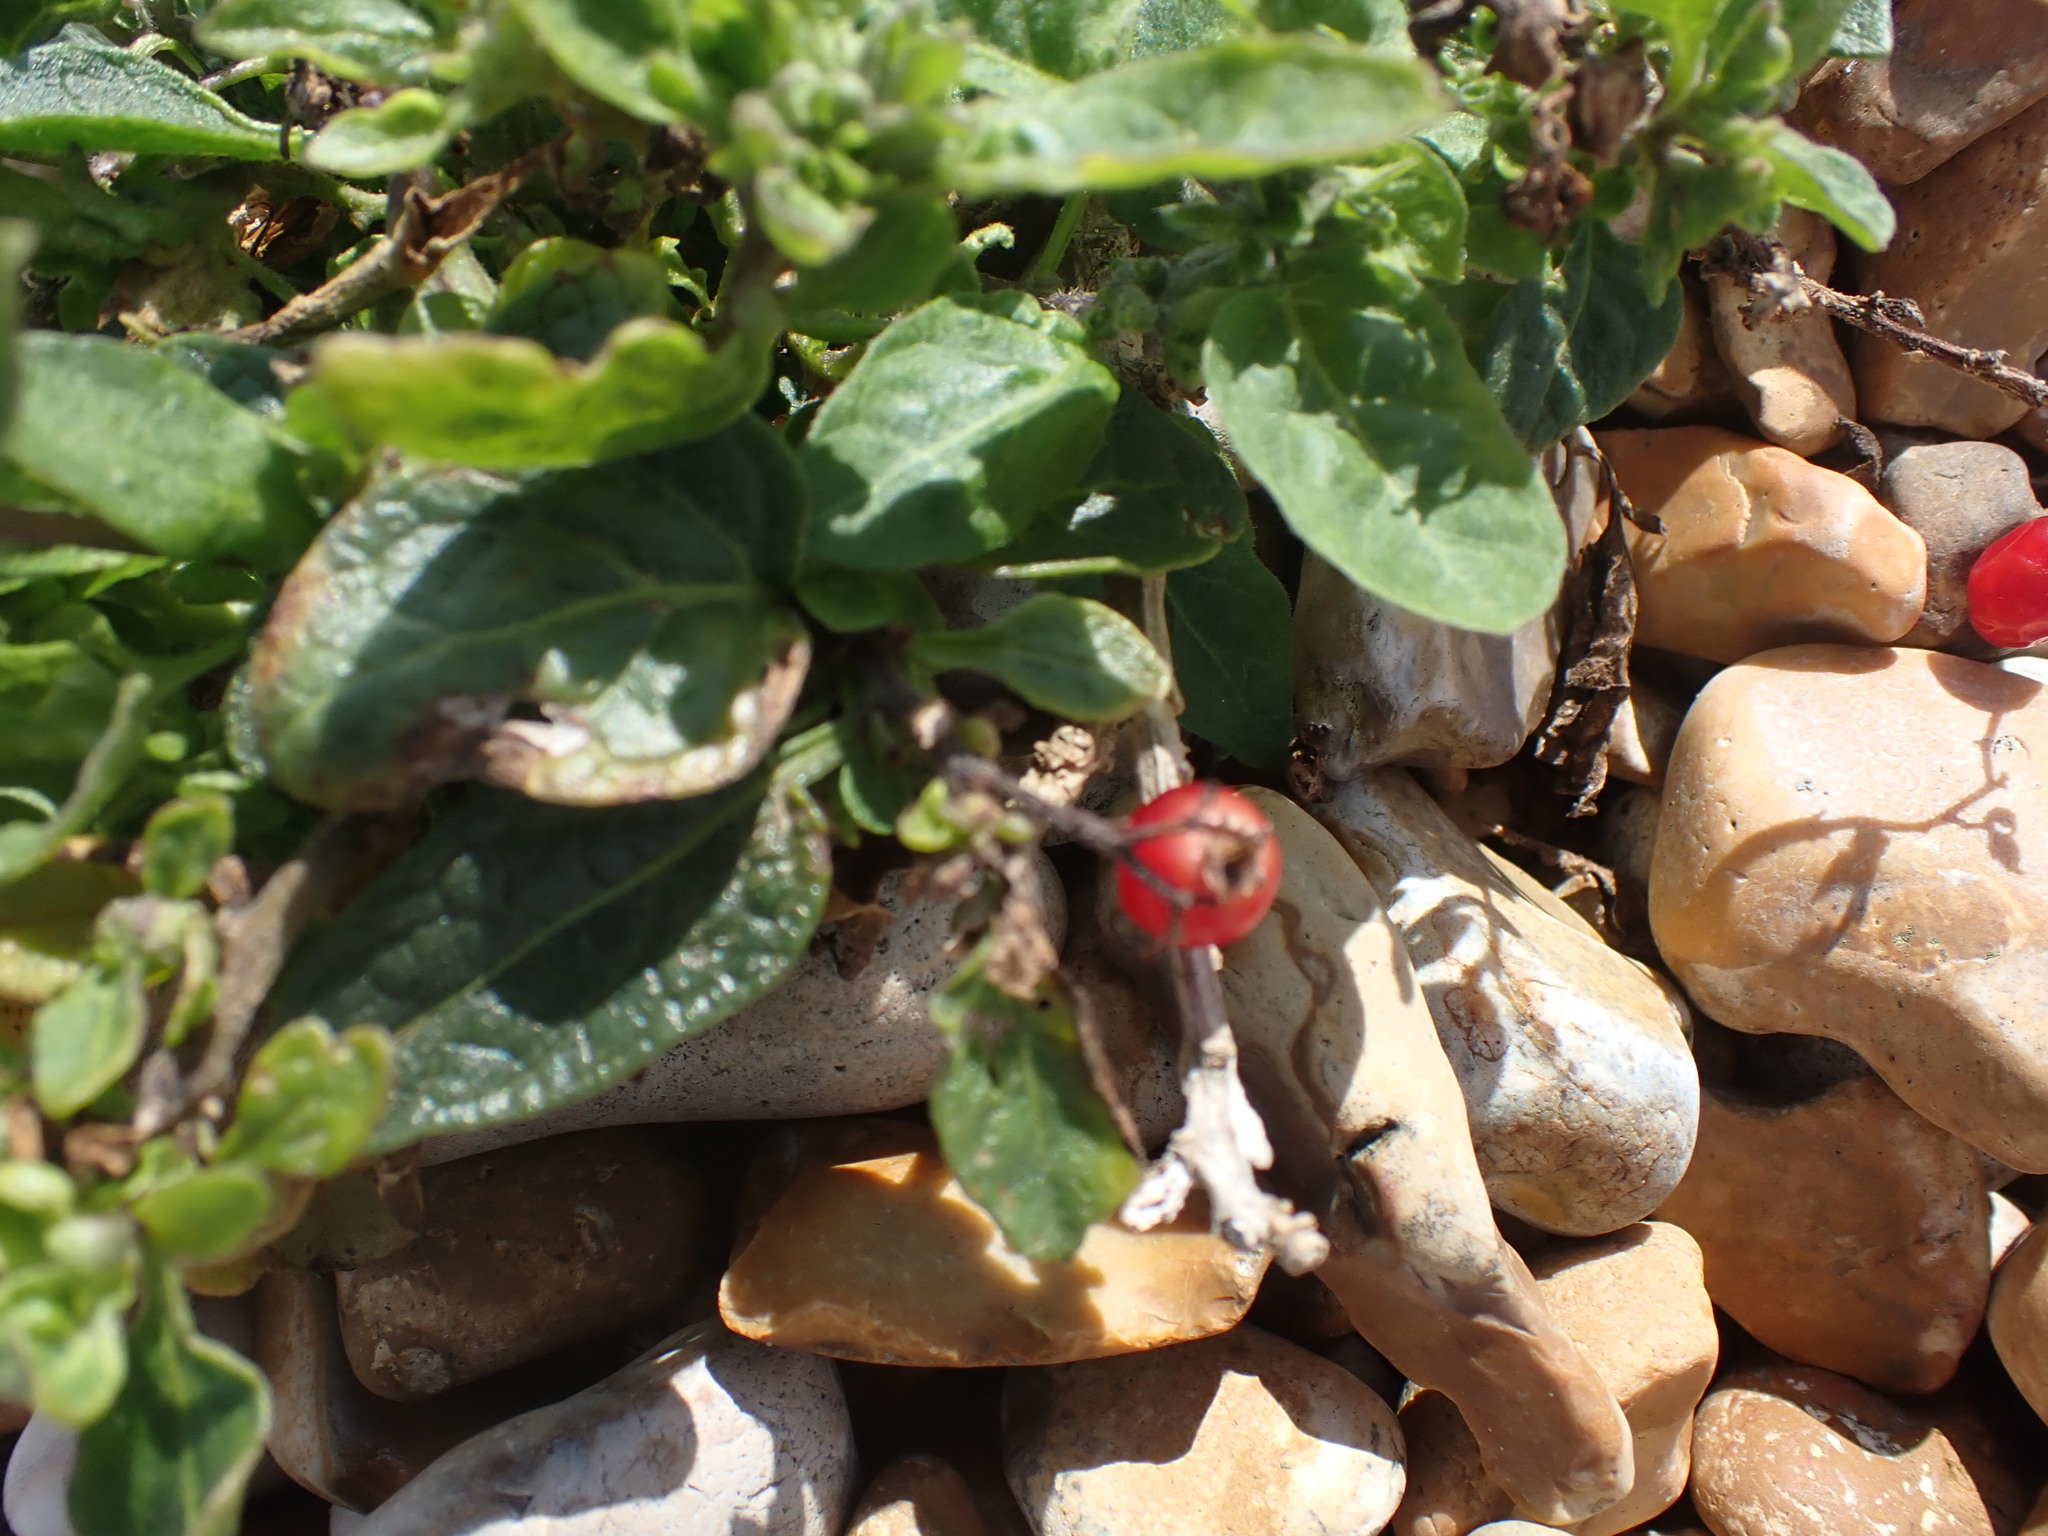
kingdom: Plantae
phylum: Tracheophyta
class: Magnoliopsida
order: Solanales
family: Solanaceae
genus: Solanum
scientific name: Solanum dulcamara
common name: Climbing nightshade
